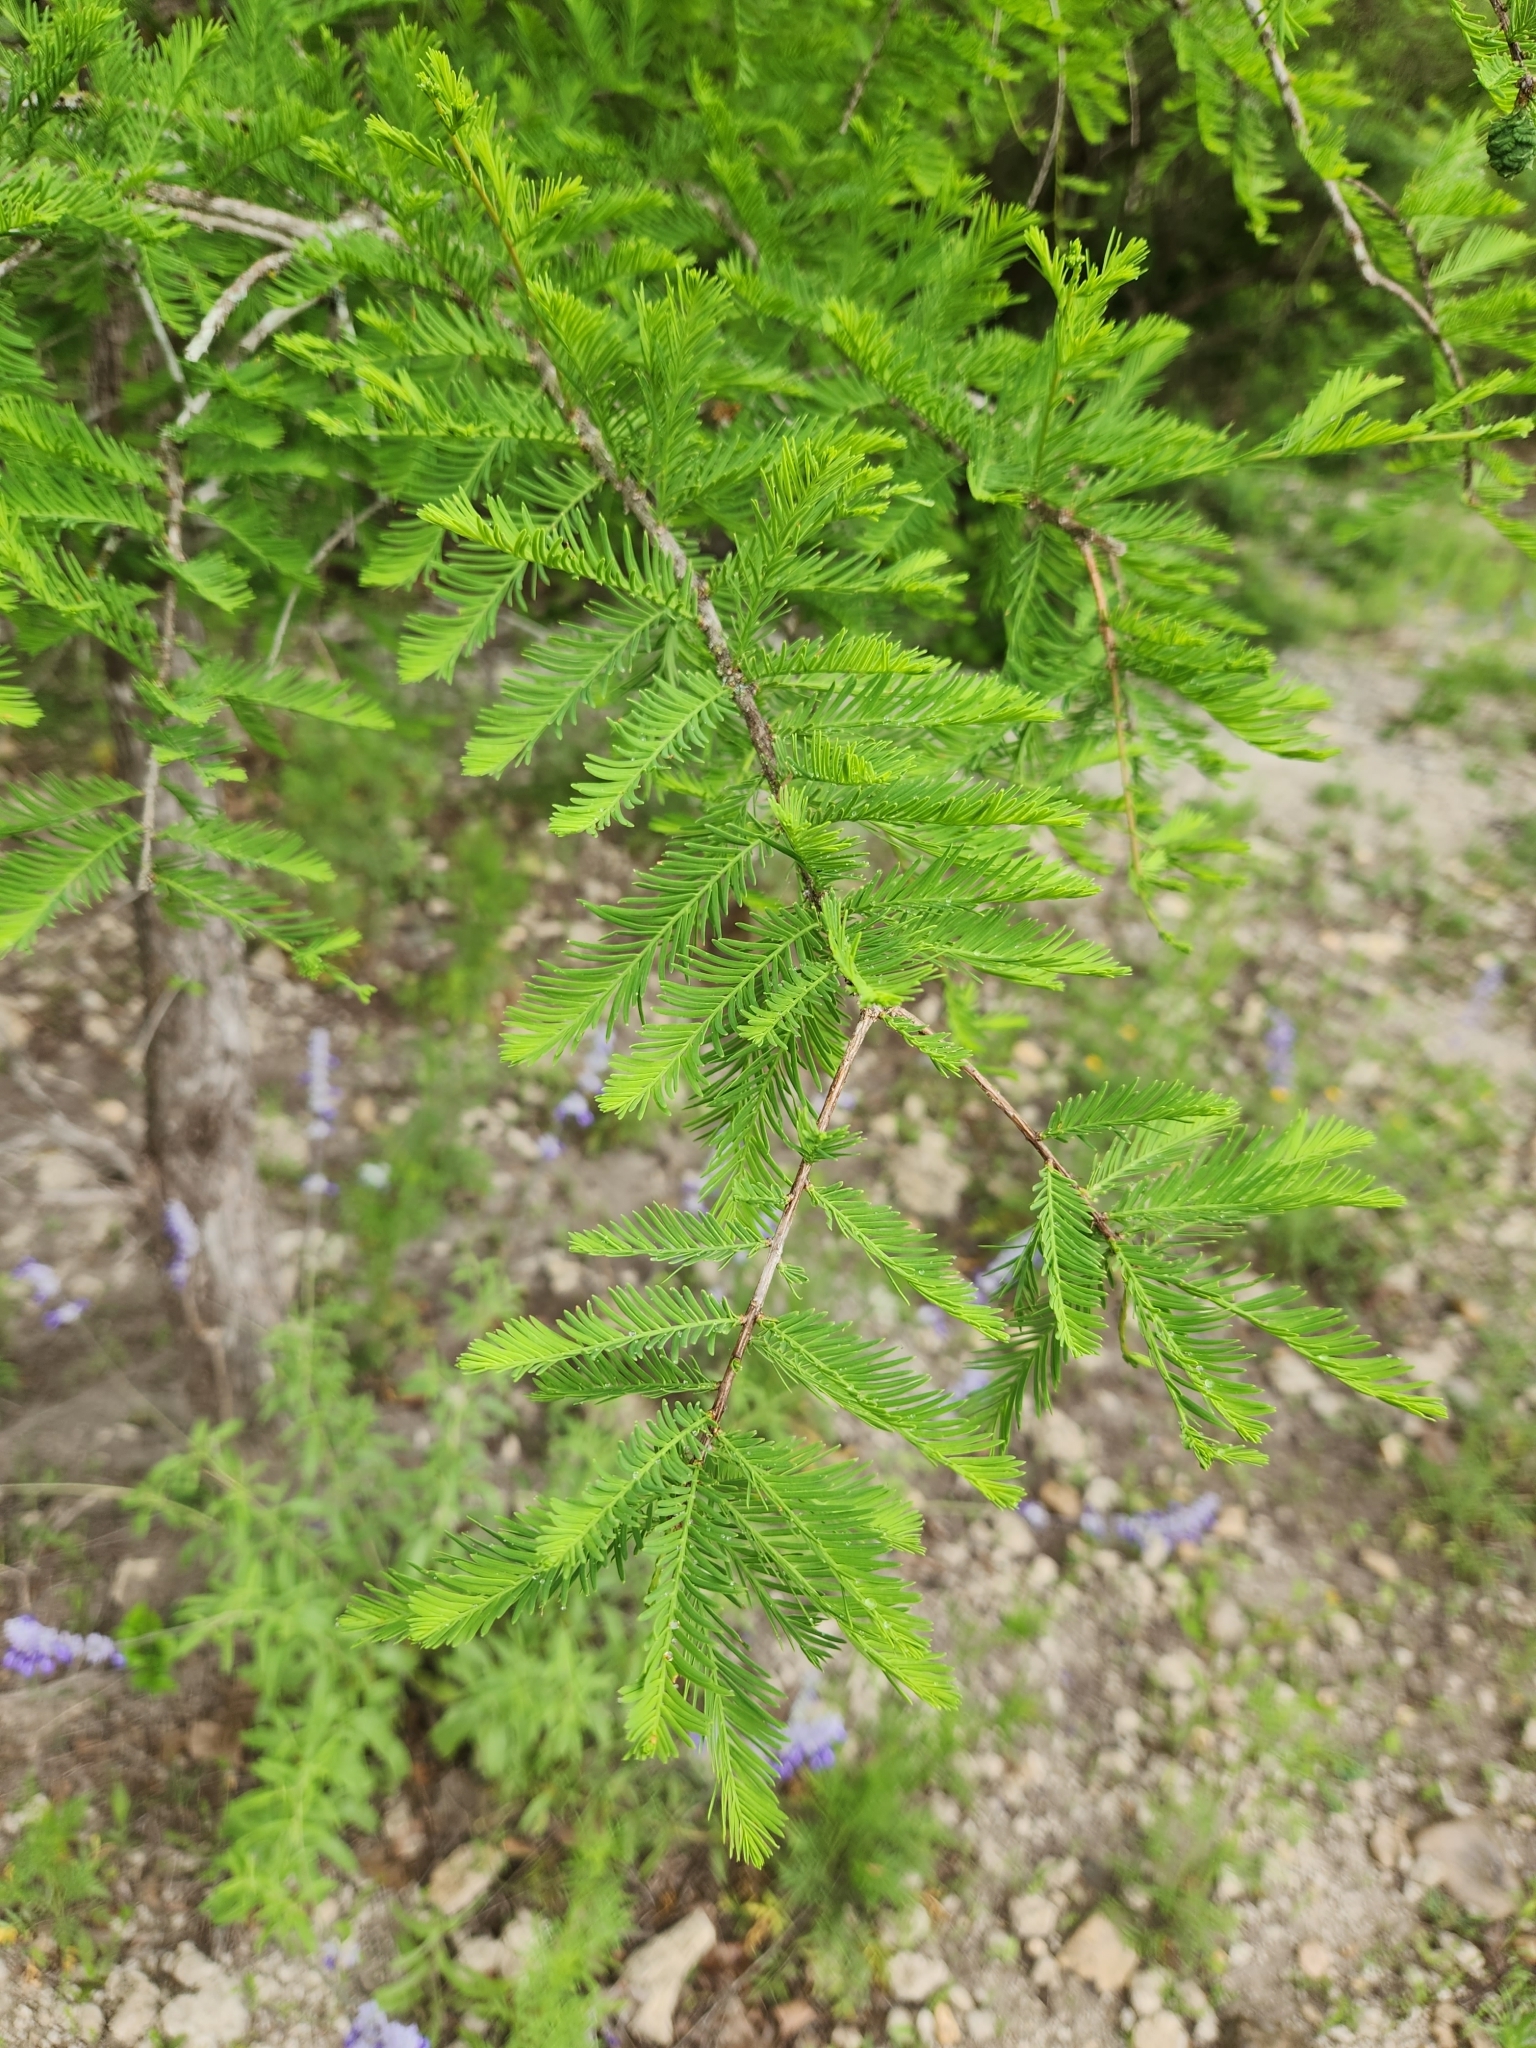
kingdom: Plantae
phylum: Tracheophyta
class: Pinopsida
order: Pinales
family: Cupressaceae
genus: Taxodium
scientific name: Taxodium distichum
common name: Bald cypress
